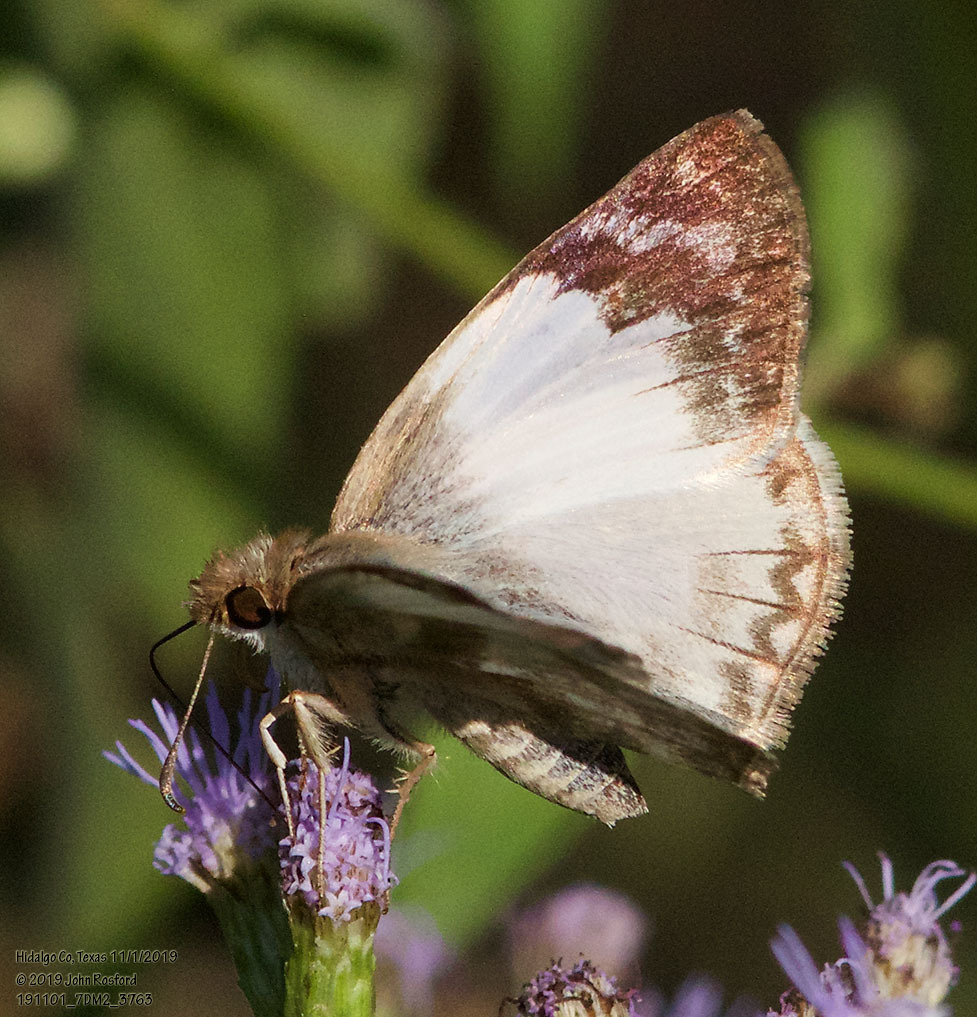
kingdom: Animalia
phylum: Arthropoda
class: Insecta
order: Lepidoptera
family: Hesperiidae
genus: Heliopetes
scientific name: Heliopetes laviana
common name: Laviana white-skipper
